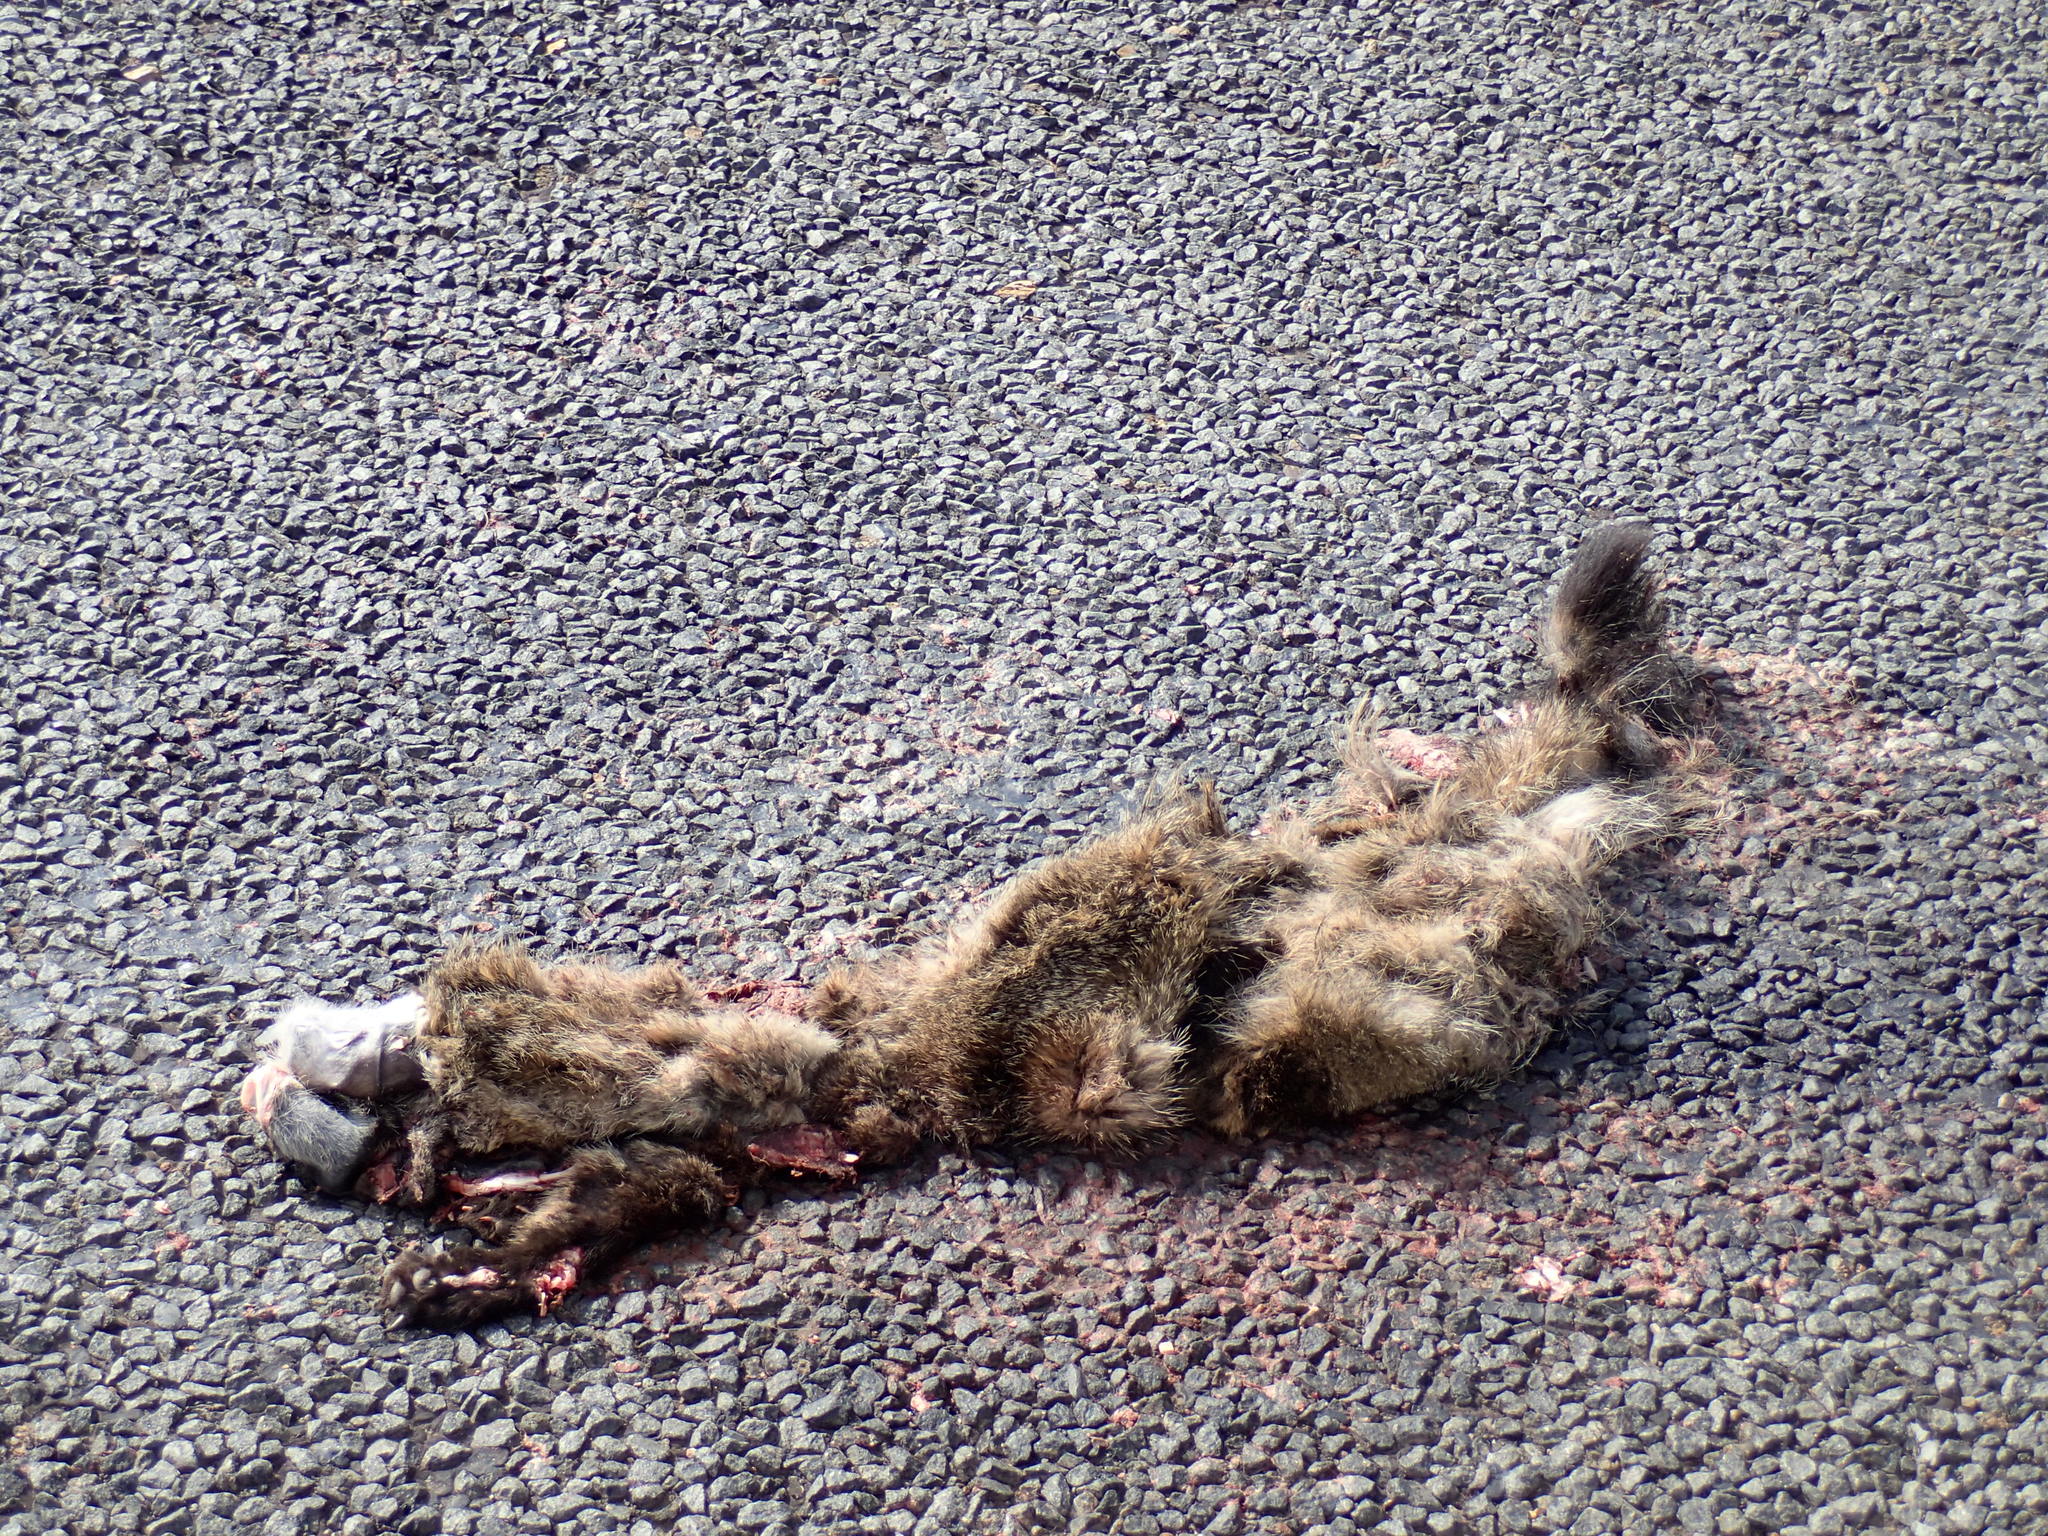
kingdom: Animalia
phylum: Chordata
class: Mammalia
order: Carnivora
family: Hyaenidae
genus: Proteles
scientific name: Proteles cristata
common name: Aardwolf
